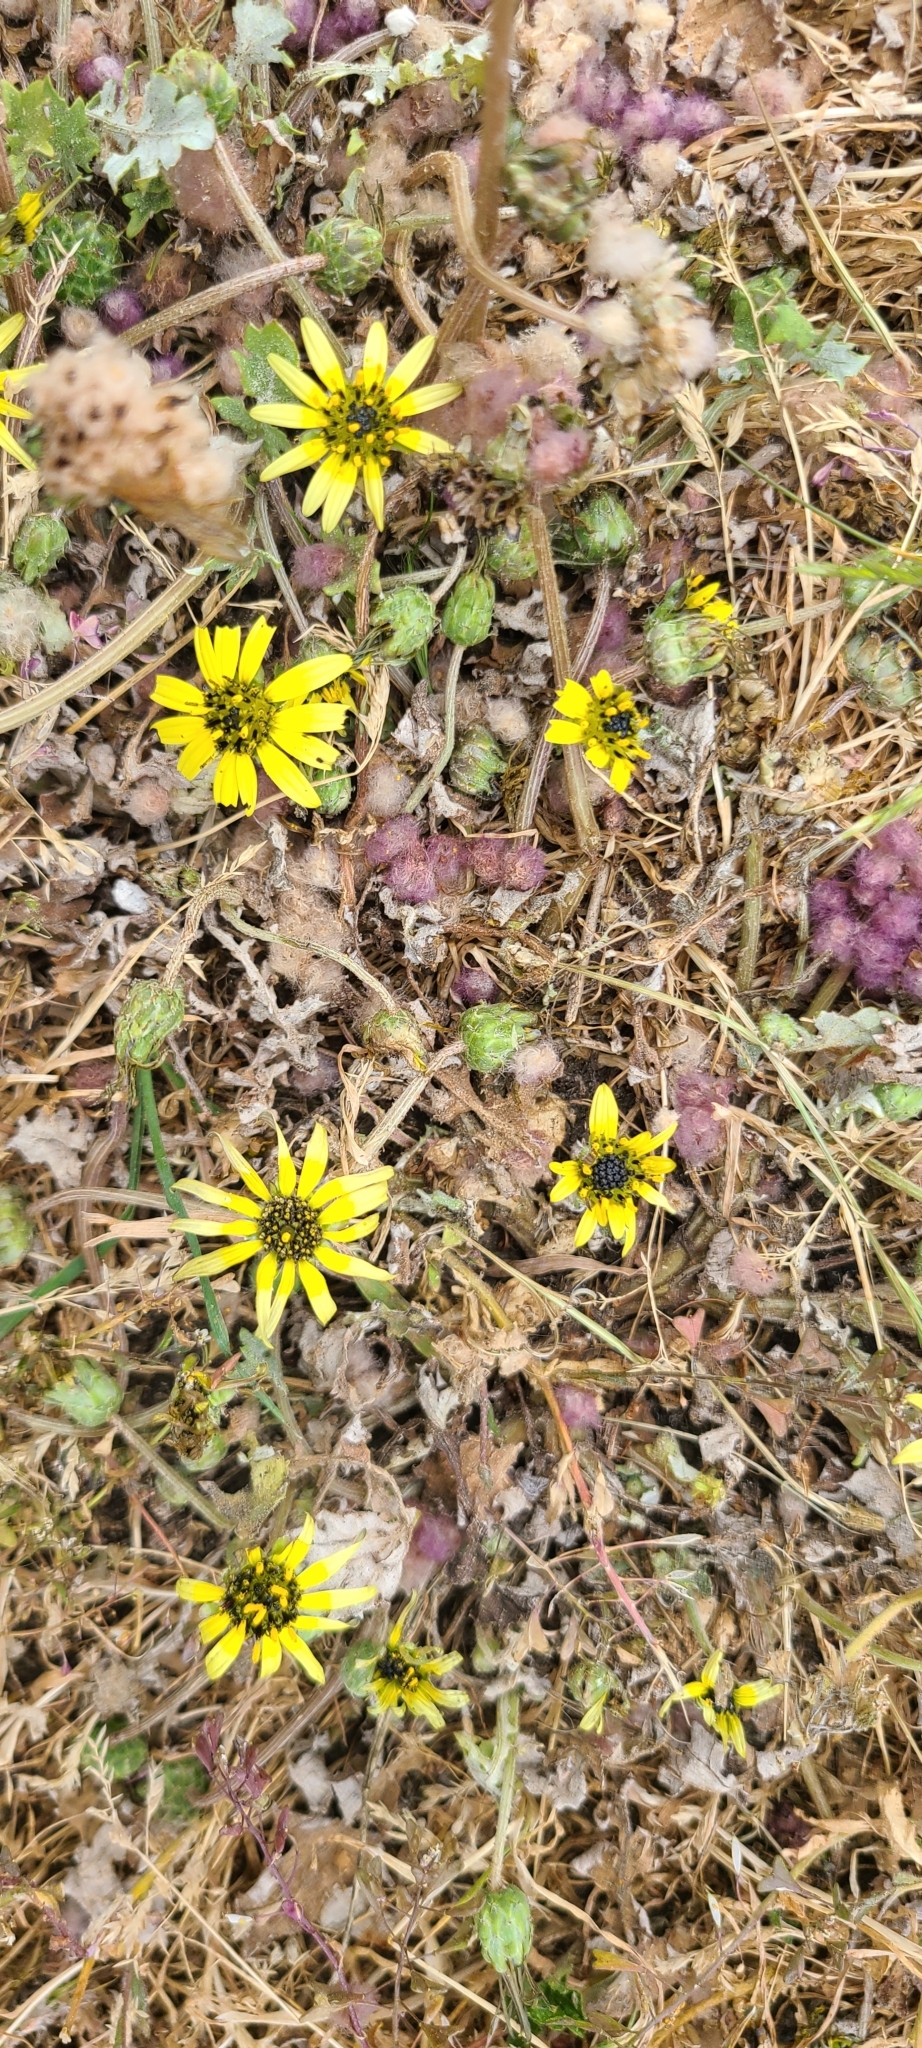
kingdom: Plantae
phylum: Tracheophyta
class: Magnoliopsida
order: Asterales
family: Asteraceae
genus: Arctotheca
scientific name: Arctotheca calendula
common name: Capeweed
